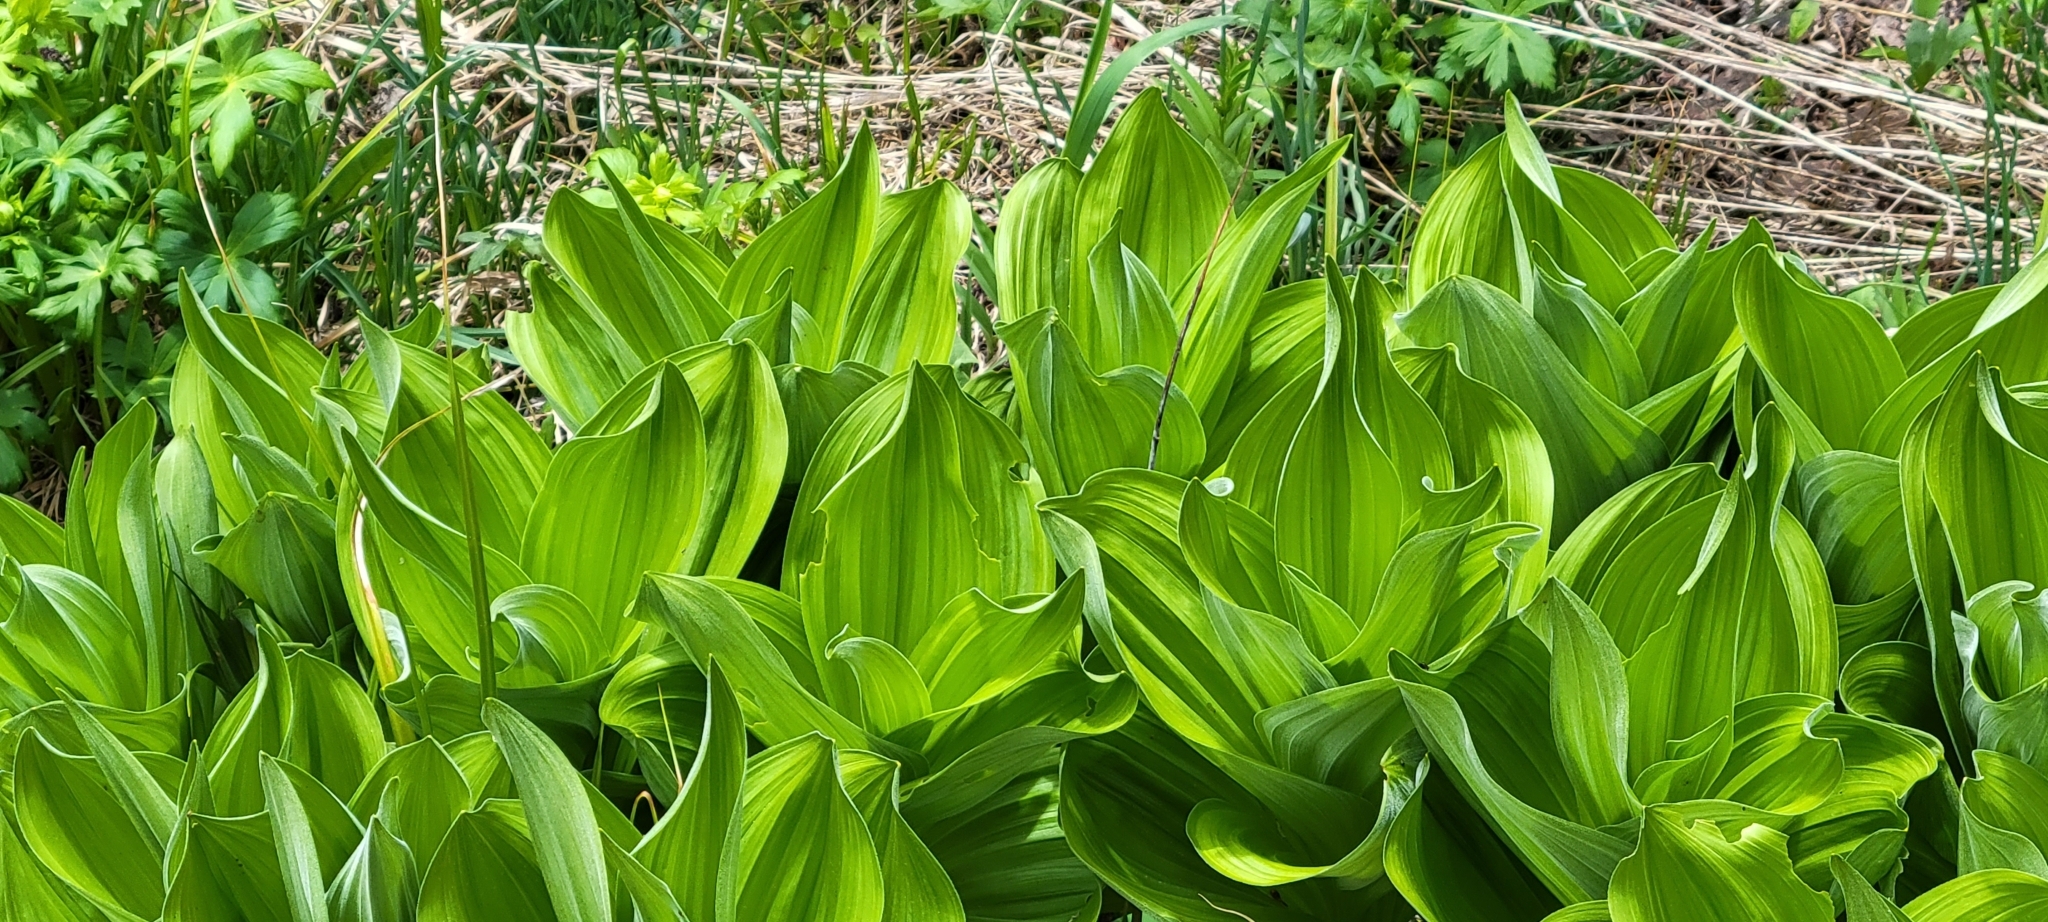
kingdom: Plantae
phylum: Tracheophyta
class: Liliopsida
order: Liliales
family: Melanthiaceae
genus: Veratrum
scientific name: Veratrum californicum
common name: California veratrum
